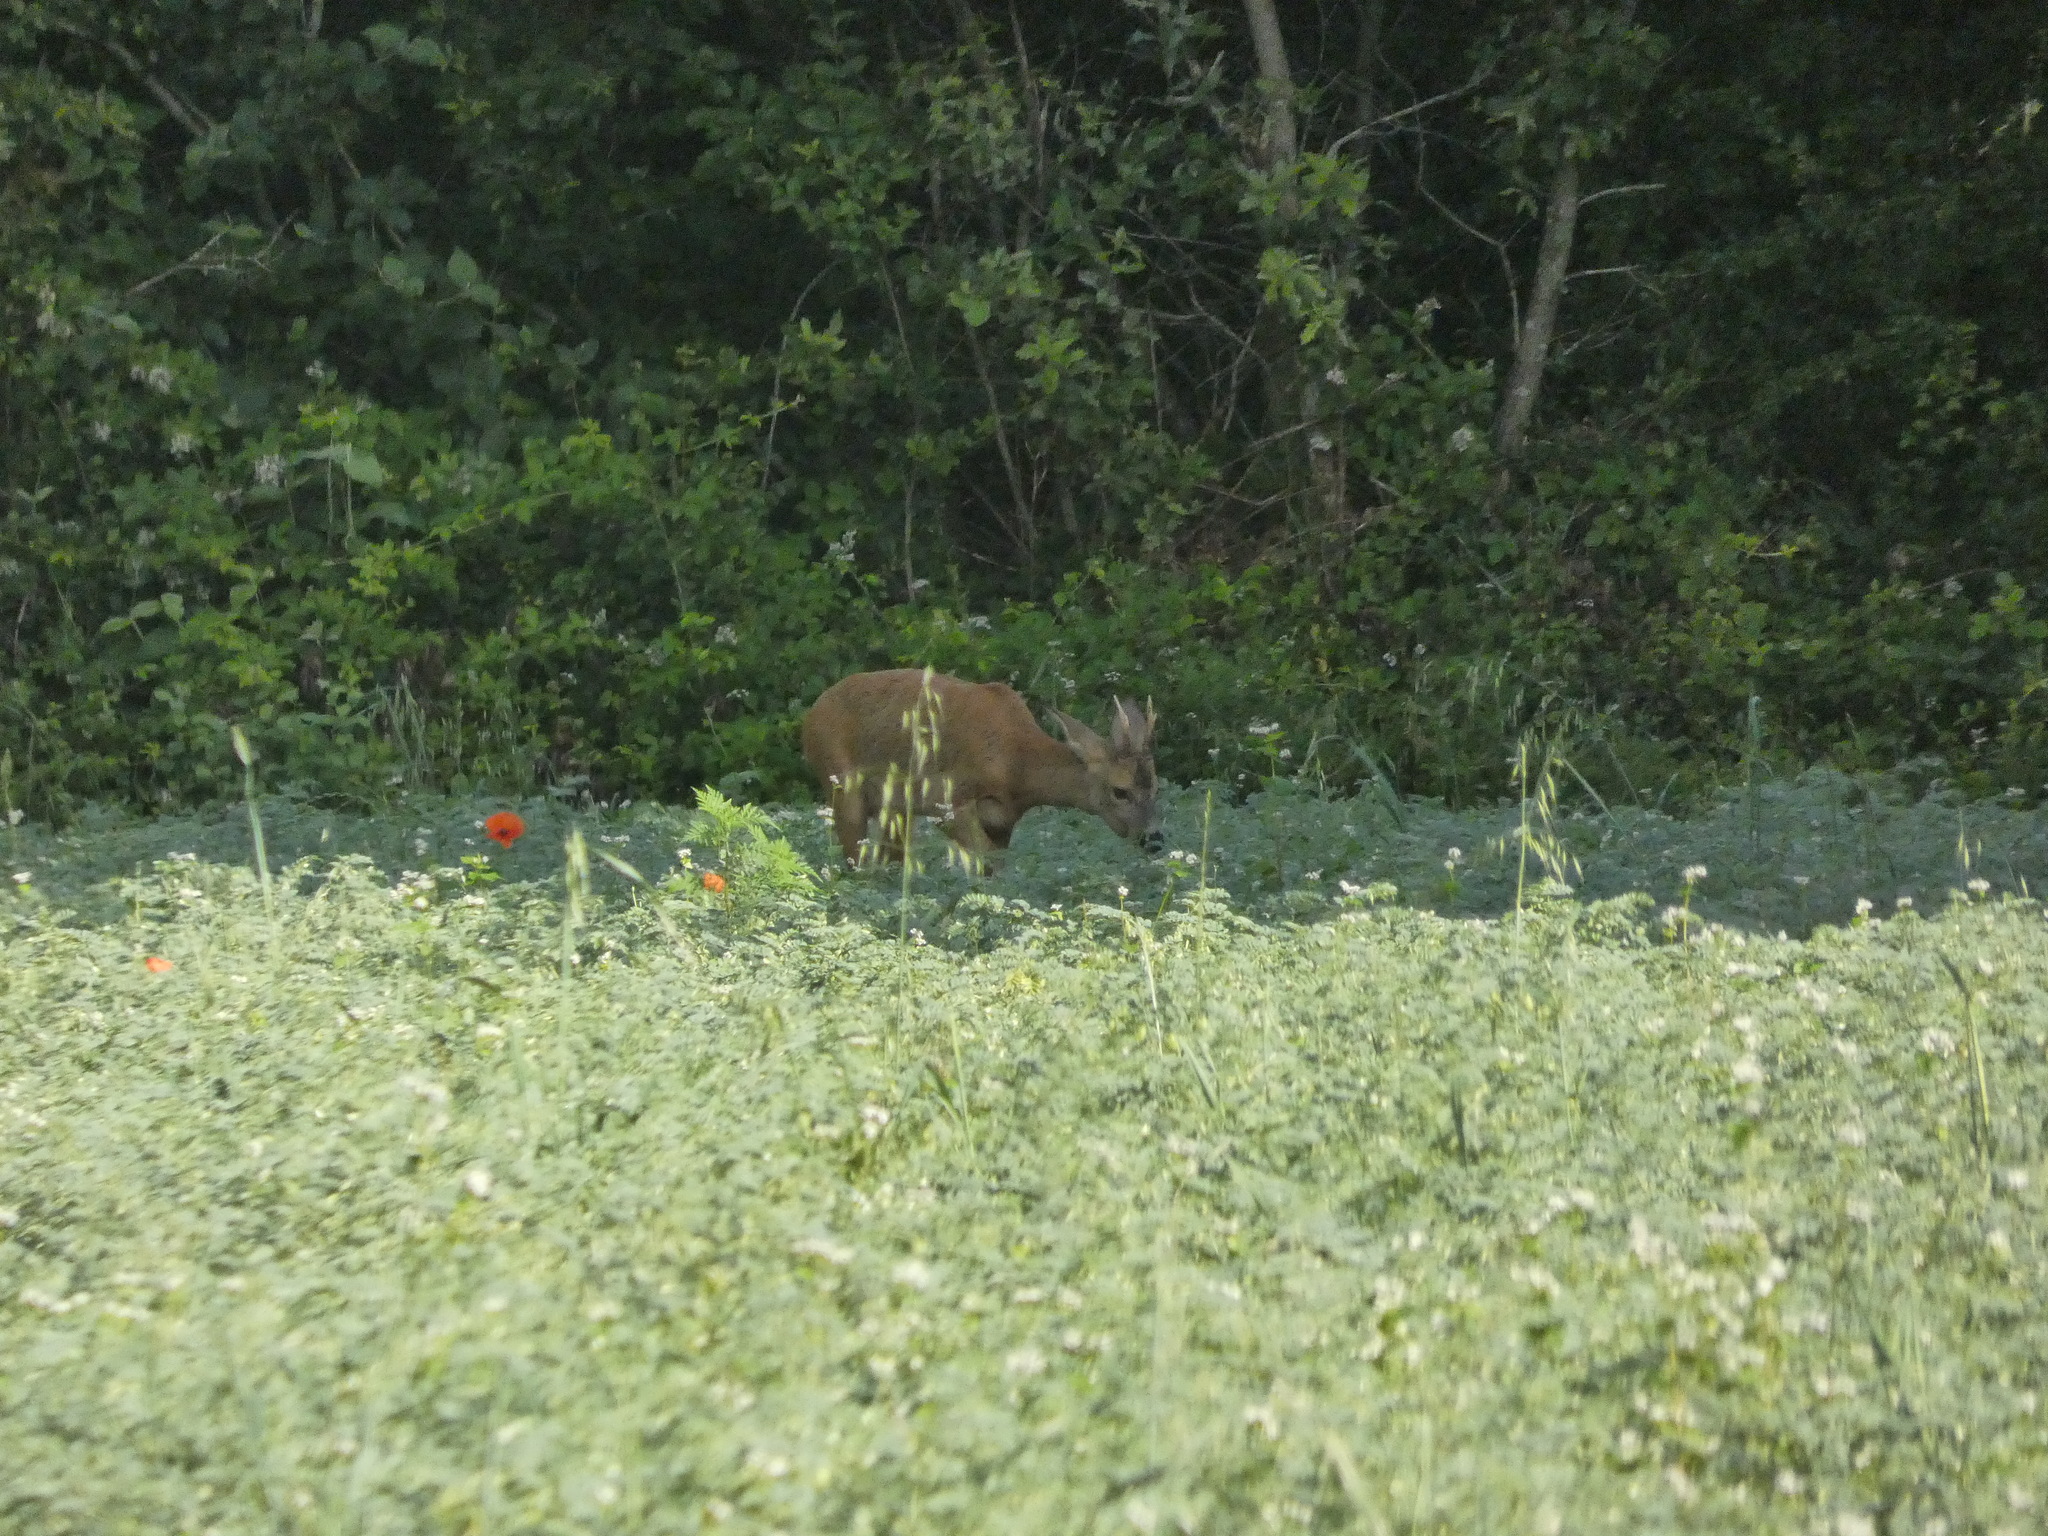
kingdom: Animalia
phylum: Chordata
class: Mammalia
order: Artiodactyla
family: Cervidae
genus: Capreolus
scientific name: Capreolus capreolus
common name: Western roe deer
